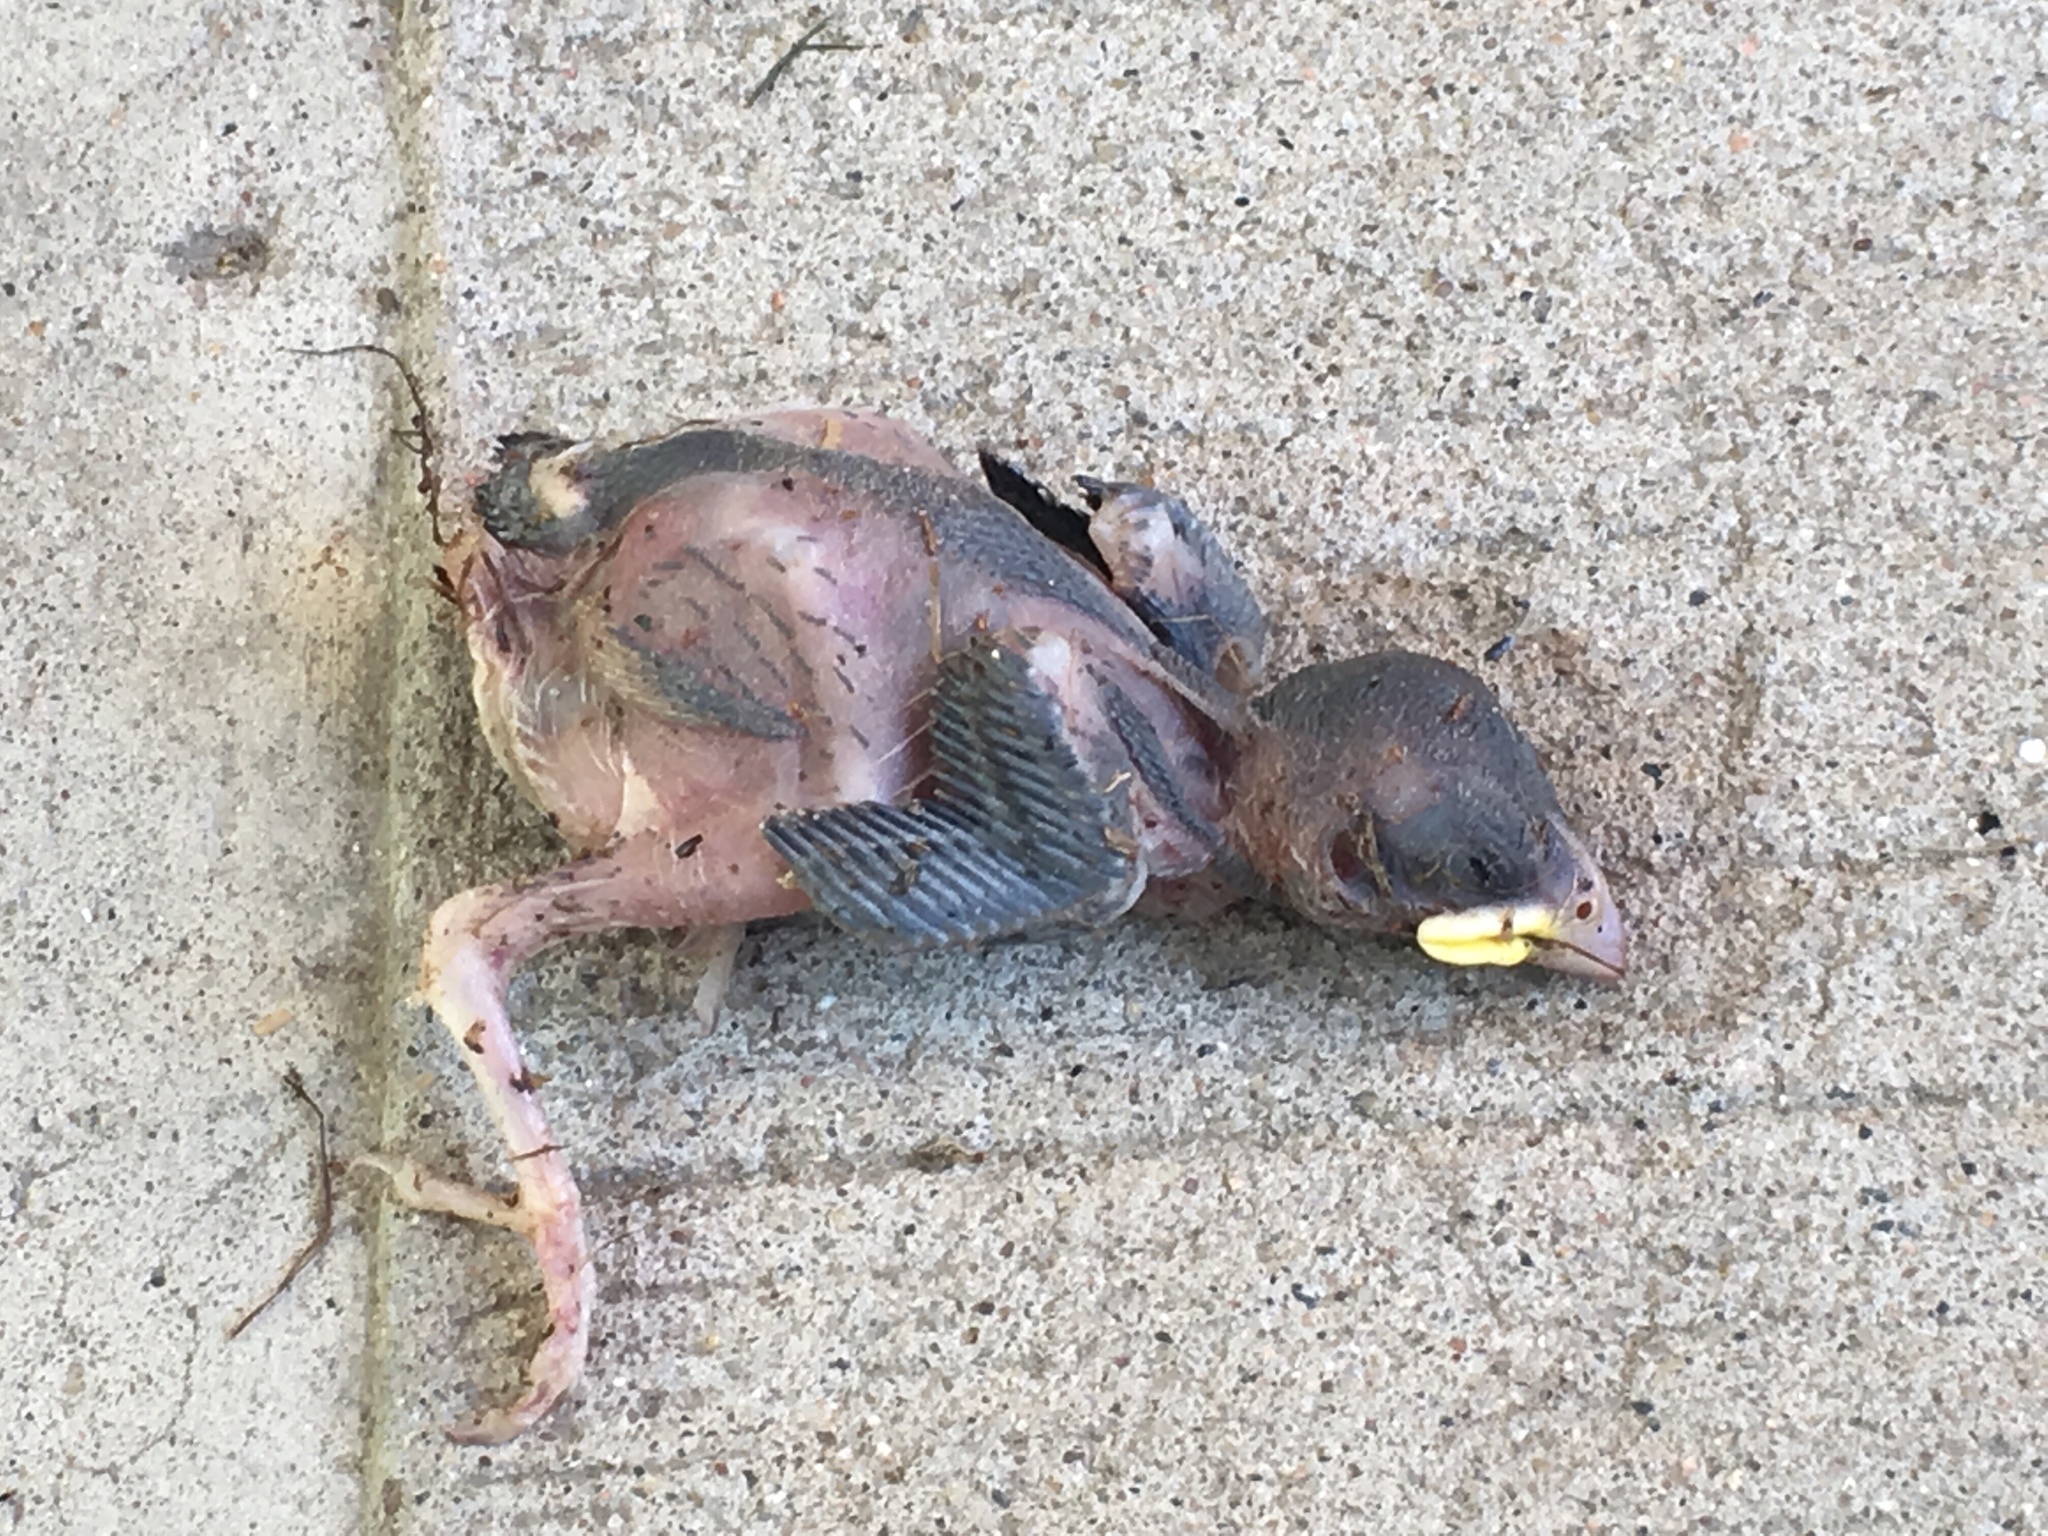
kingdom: Animalia
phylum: Chordata
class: Aves
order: Passeriformes
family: Passeridae
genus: Passer
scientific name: Passer domesticus
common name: House sparrow
